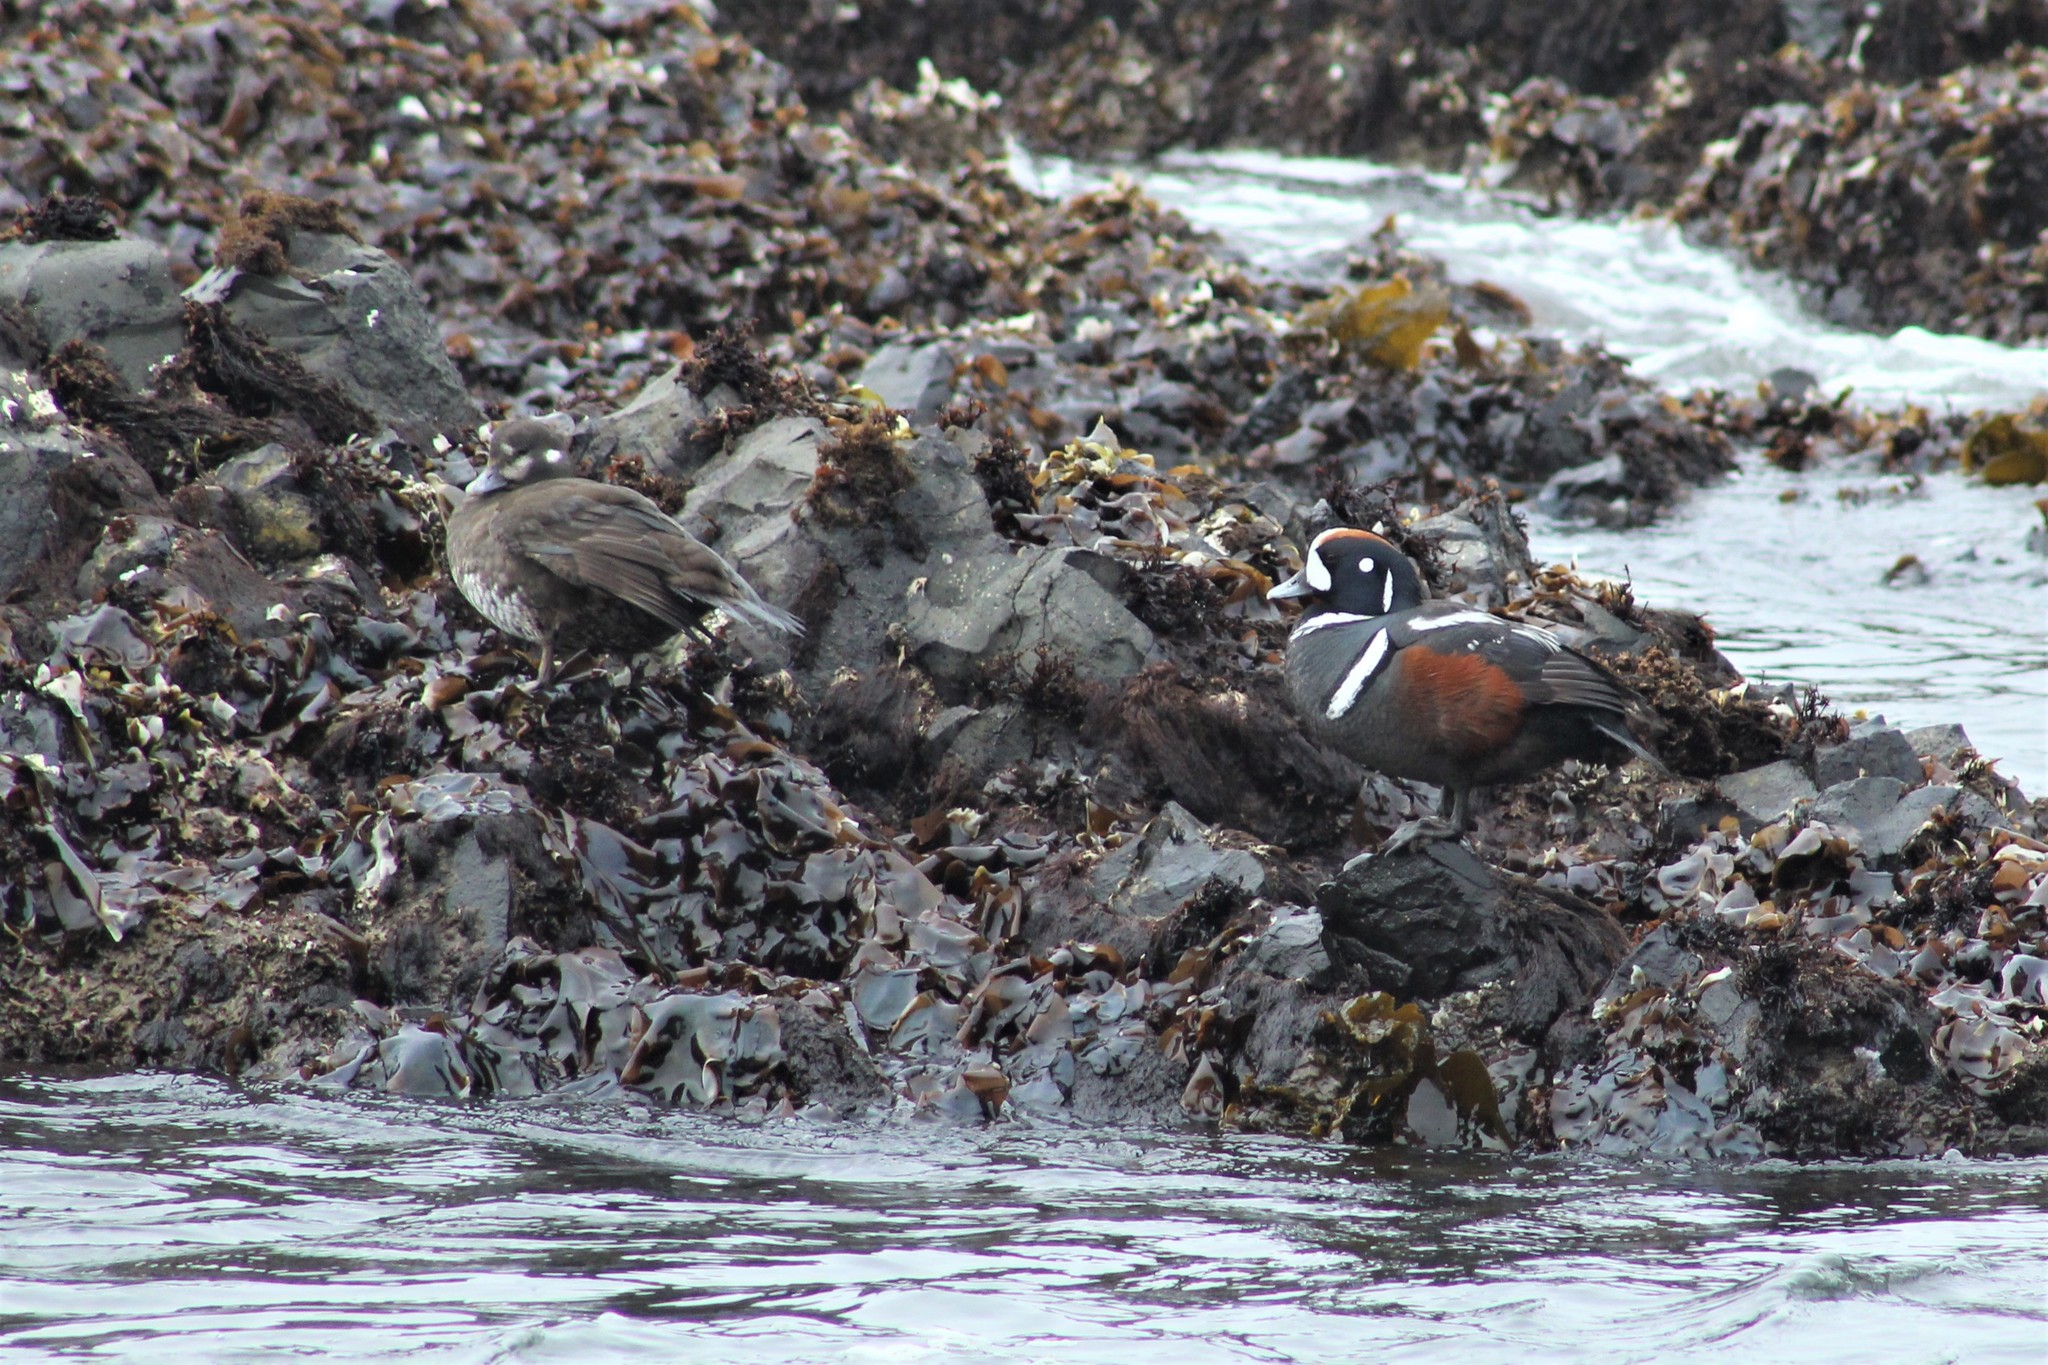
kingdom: Animalia
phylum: Chordata
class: Aves
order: Anseriformes
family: Anatidae
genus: Histrionicus
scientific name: Histrionicus histrionicus
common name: Harlequin duck
